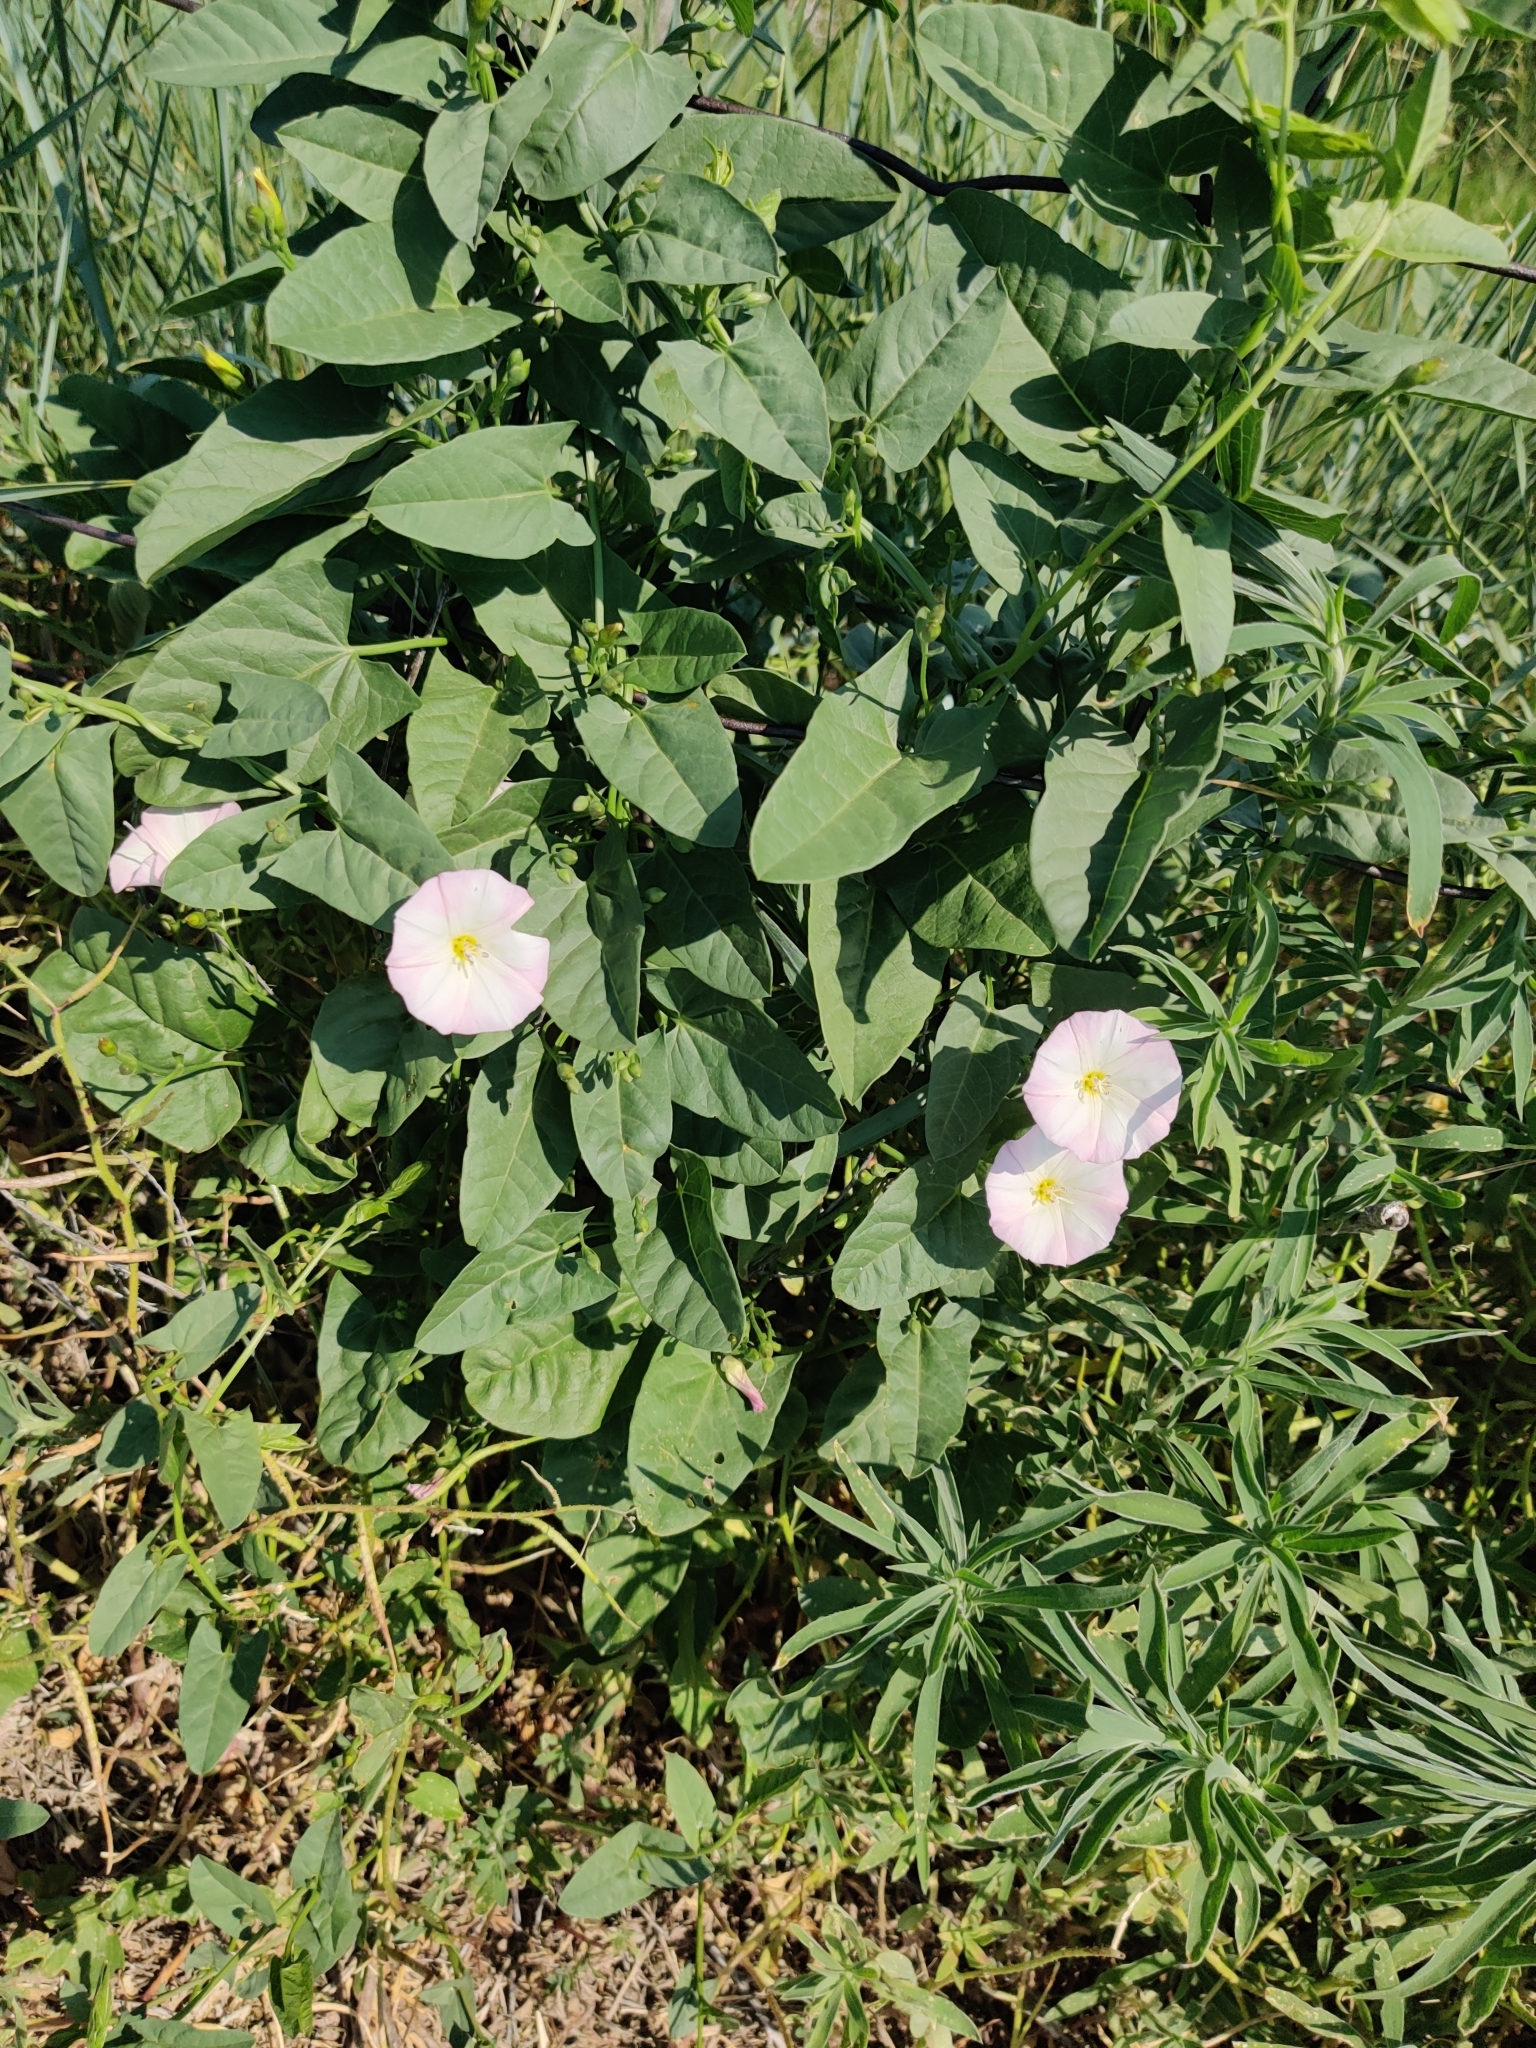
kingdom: Plantae
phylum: Tracheophyta
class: Magnoliopsida
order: Solanales
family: Convolvulaceae
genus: Convolvulus
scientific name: Convolvulus arvensis
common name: Field bindweed
